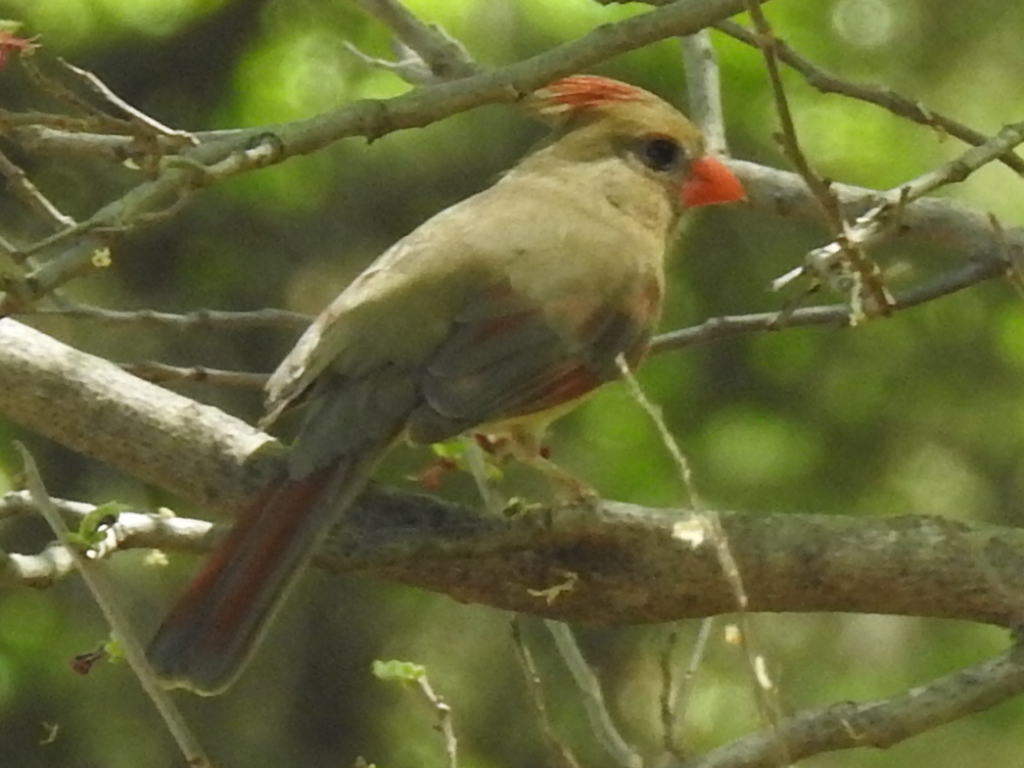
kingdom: Animalia
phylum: Chordata
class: Aves
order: Passeriformes
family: Cardinalidae
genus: Cardinalis
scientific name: Cardinalis cardinalis
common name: Northern cardinal
